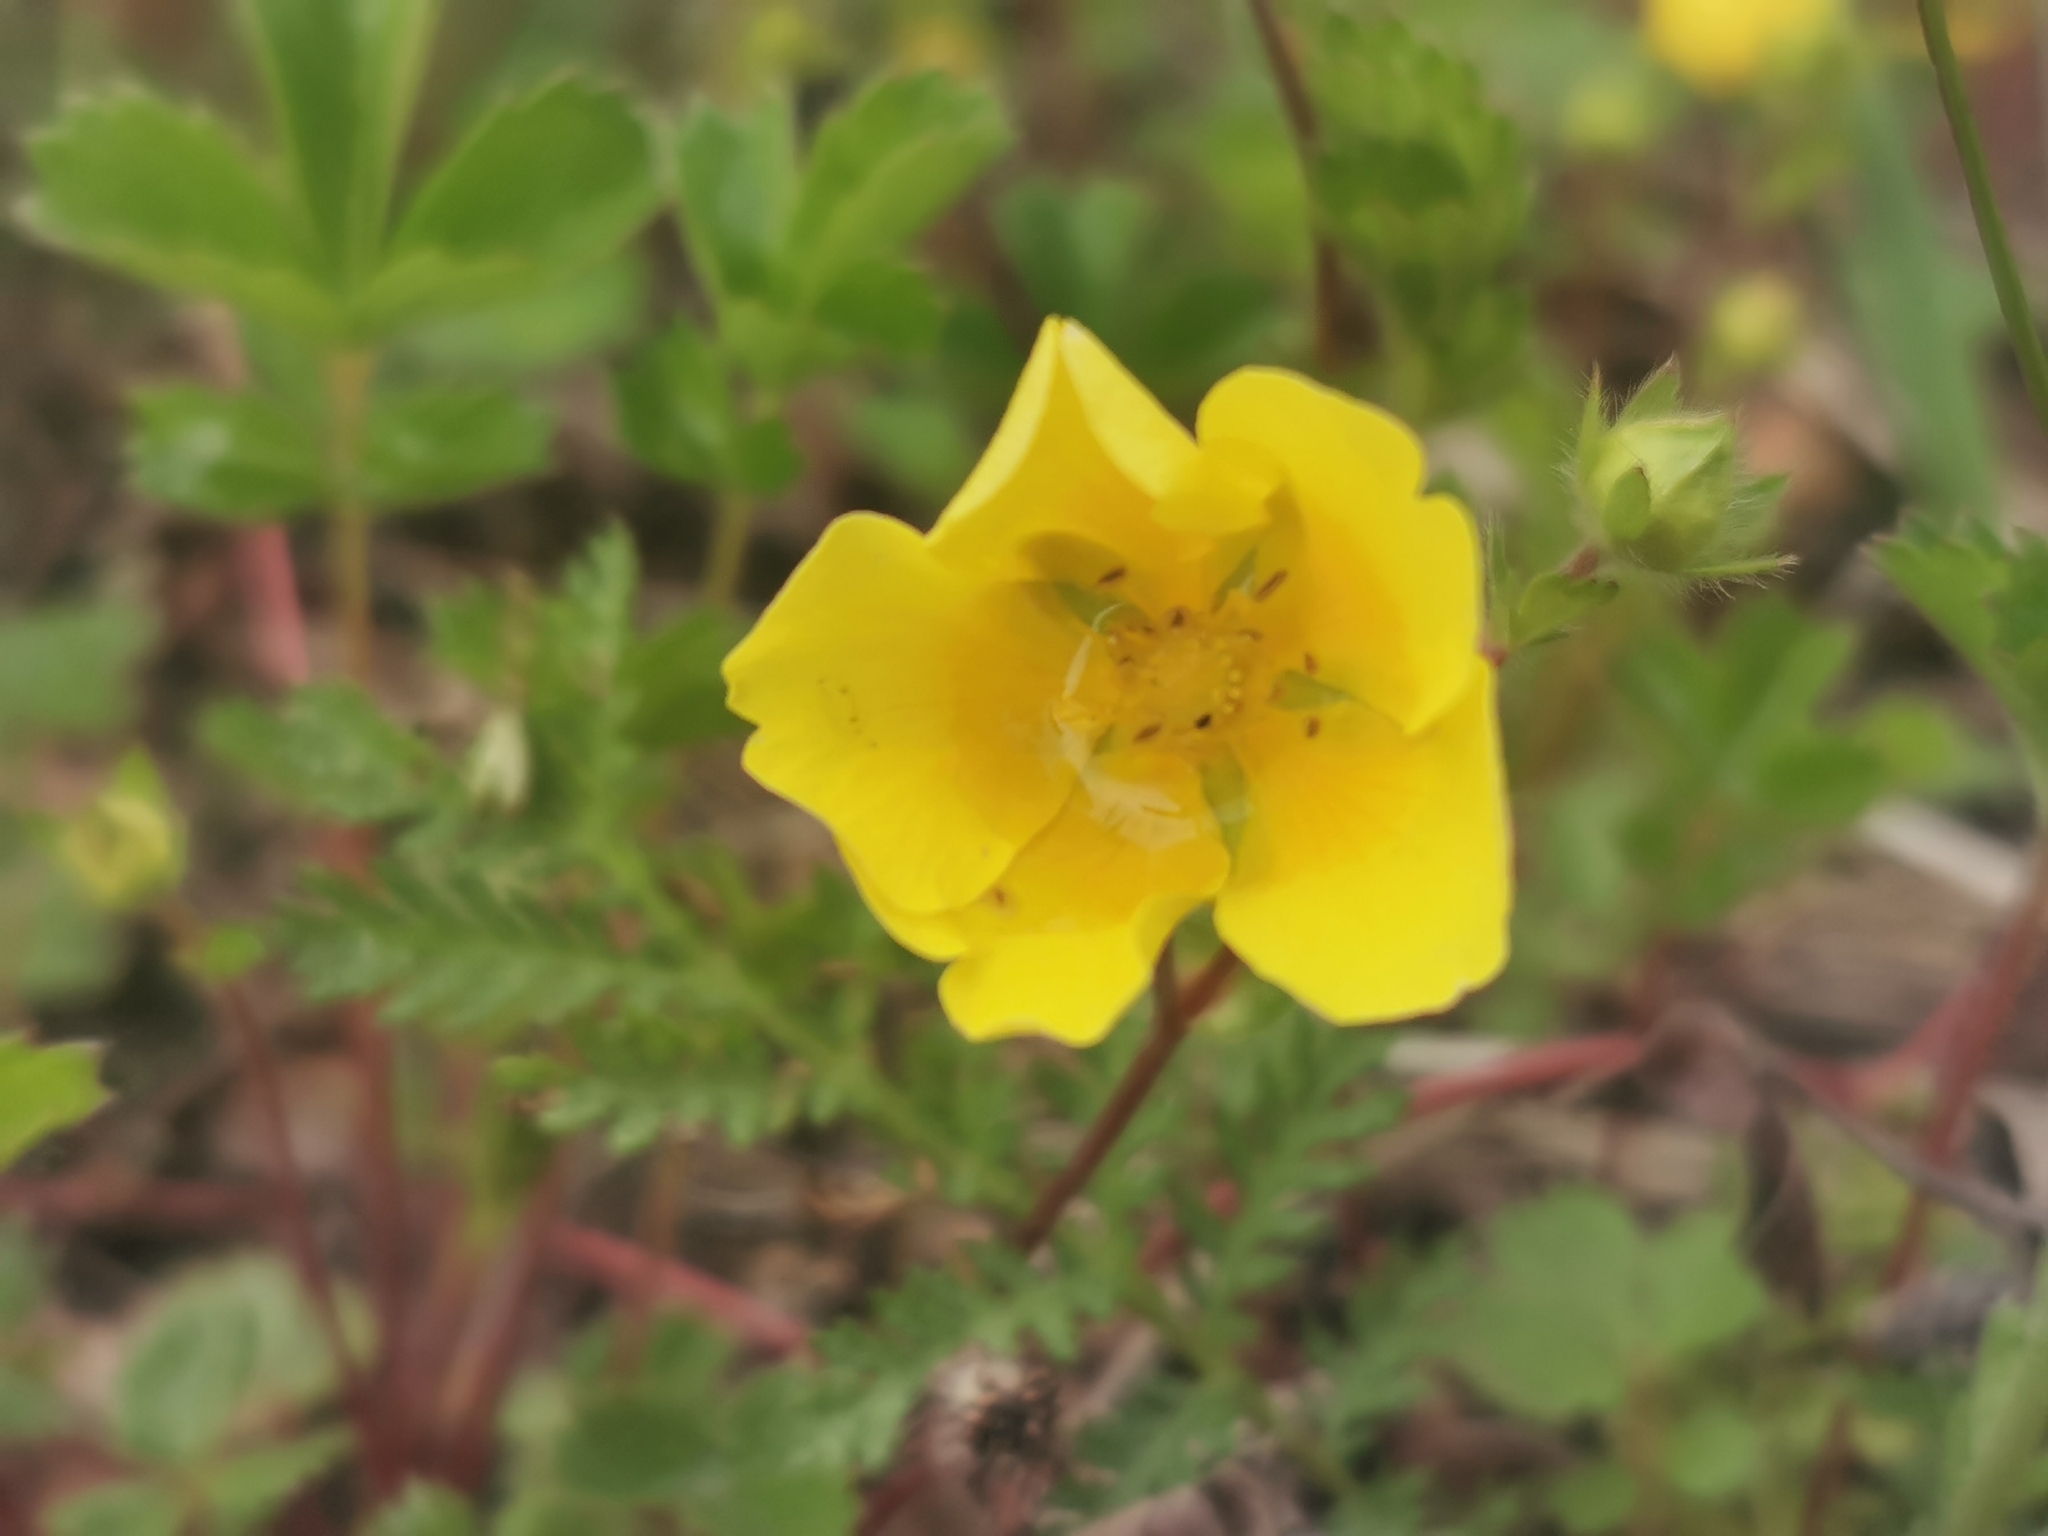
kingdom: Plantae
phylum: Tracheophyta
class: Magnoliopsida
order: Rosales
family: Rosaceae
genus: Potentilla
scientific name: Potentilla stolonifera
